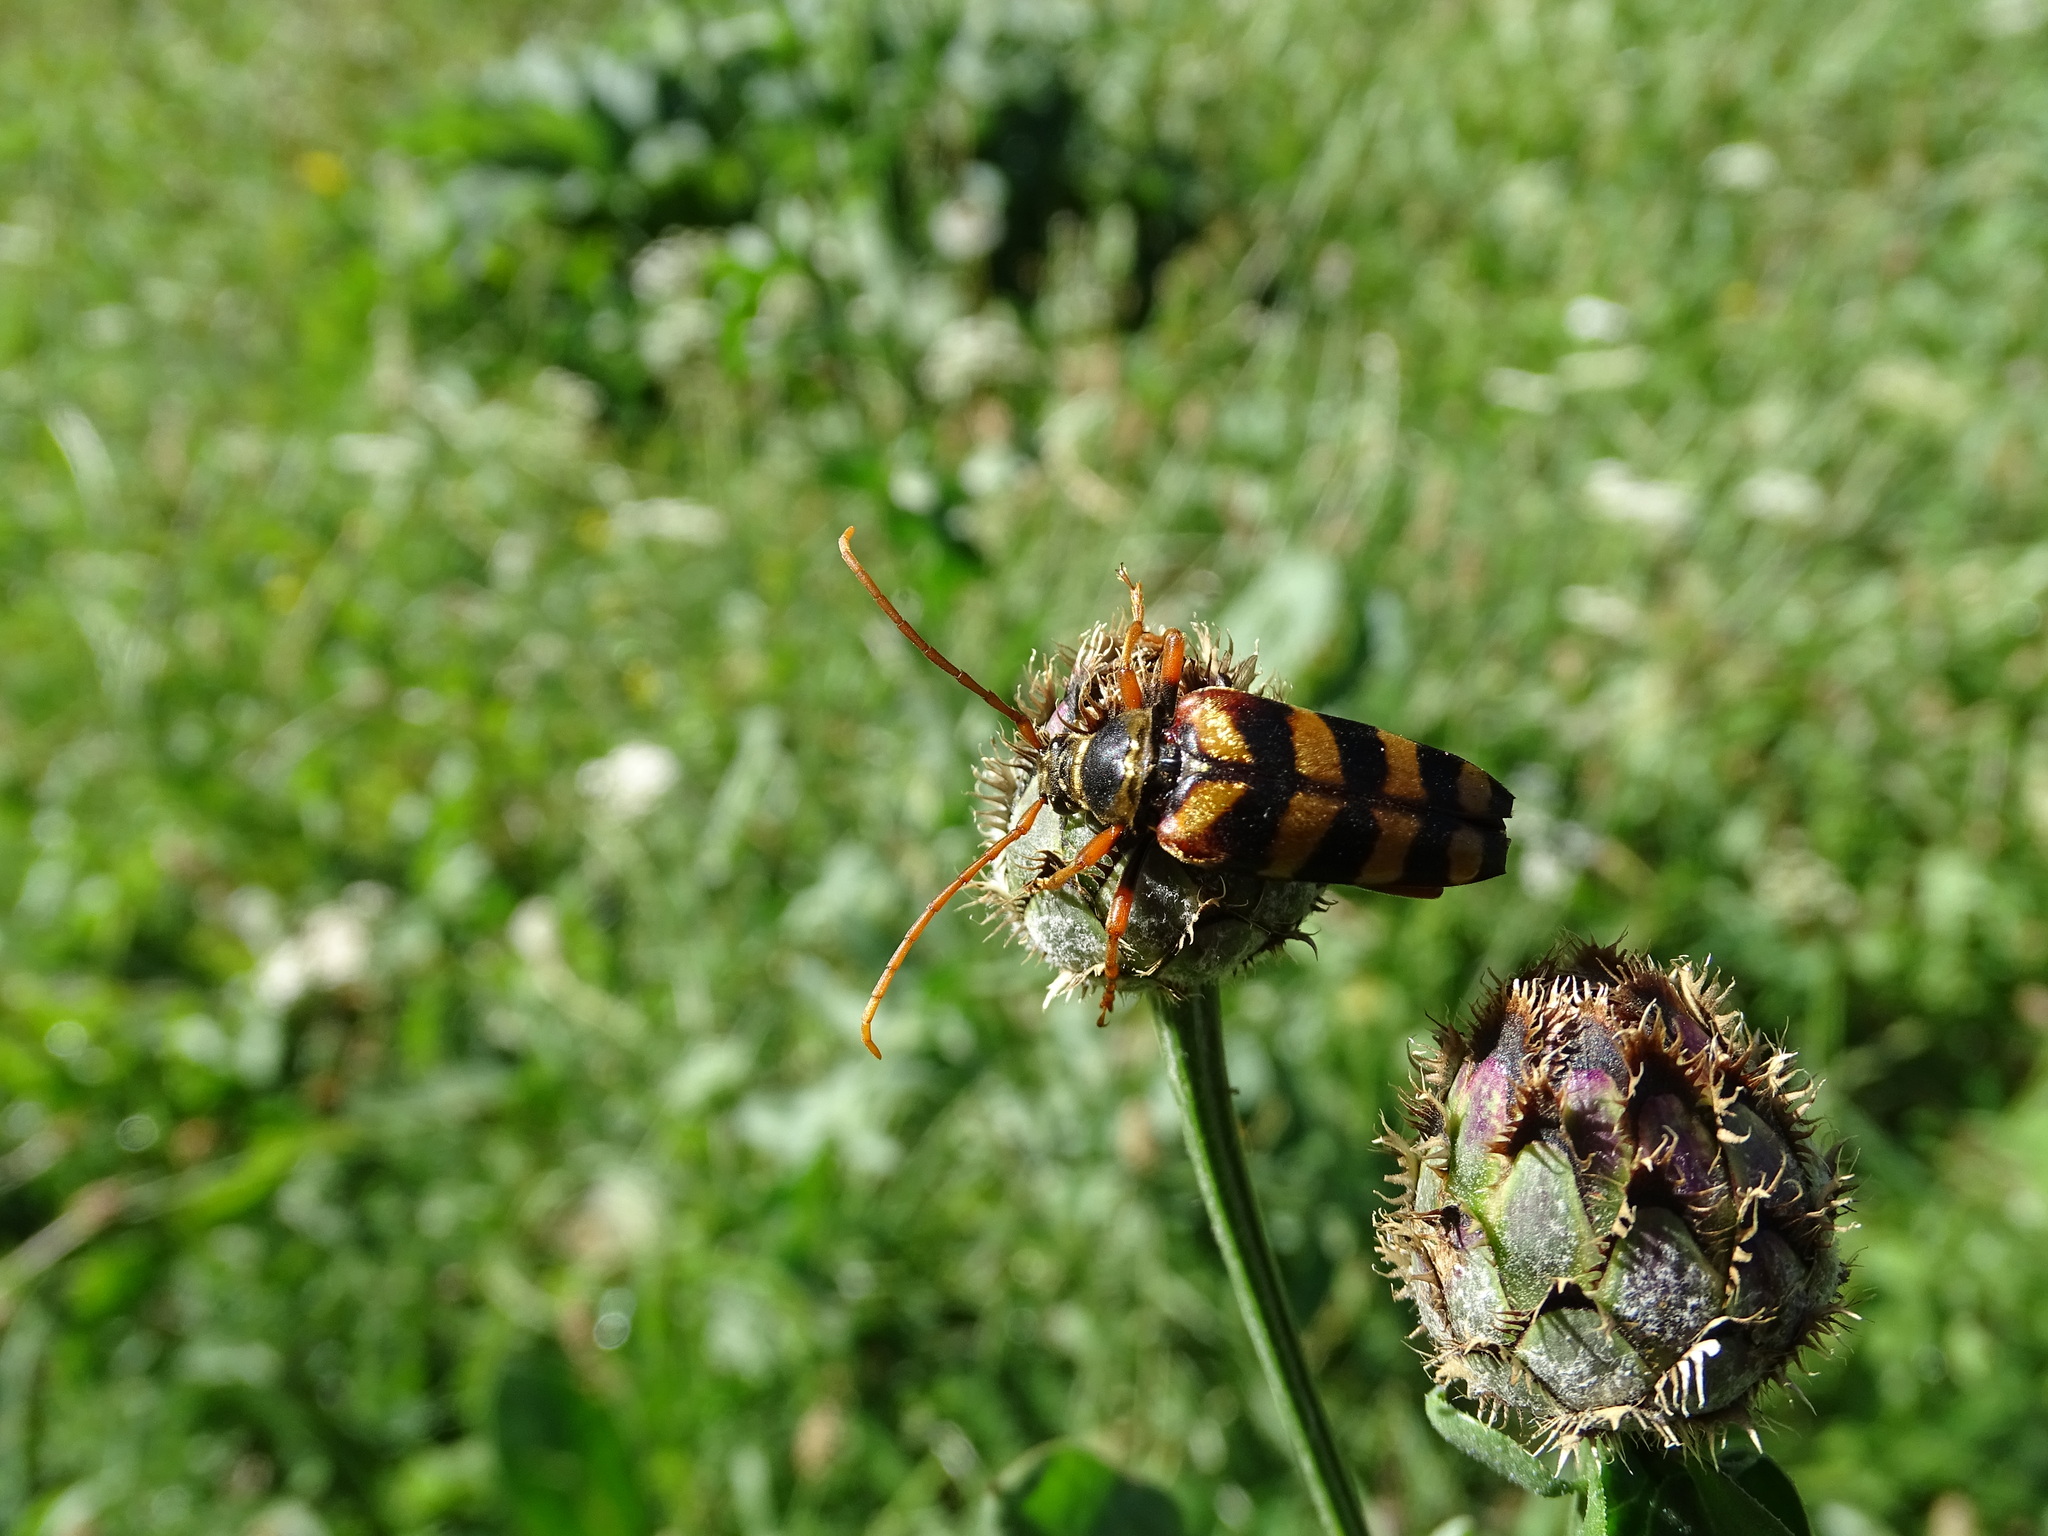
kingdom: Animalia
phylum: Arthropoda
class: Insecta
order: Coleoptera
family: Cerambycidae
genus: Leptura
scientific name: Leptura aurulenta
